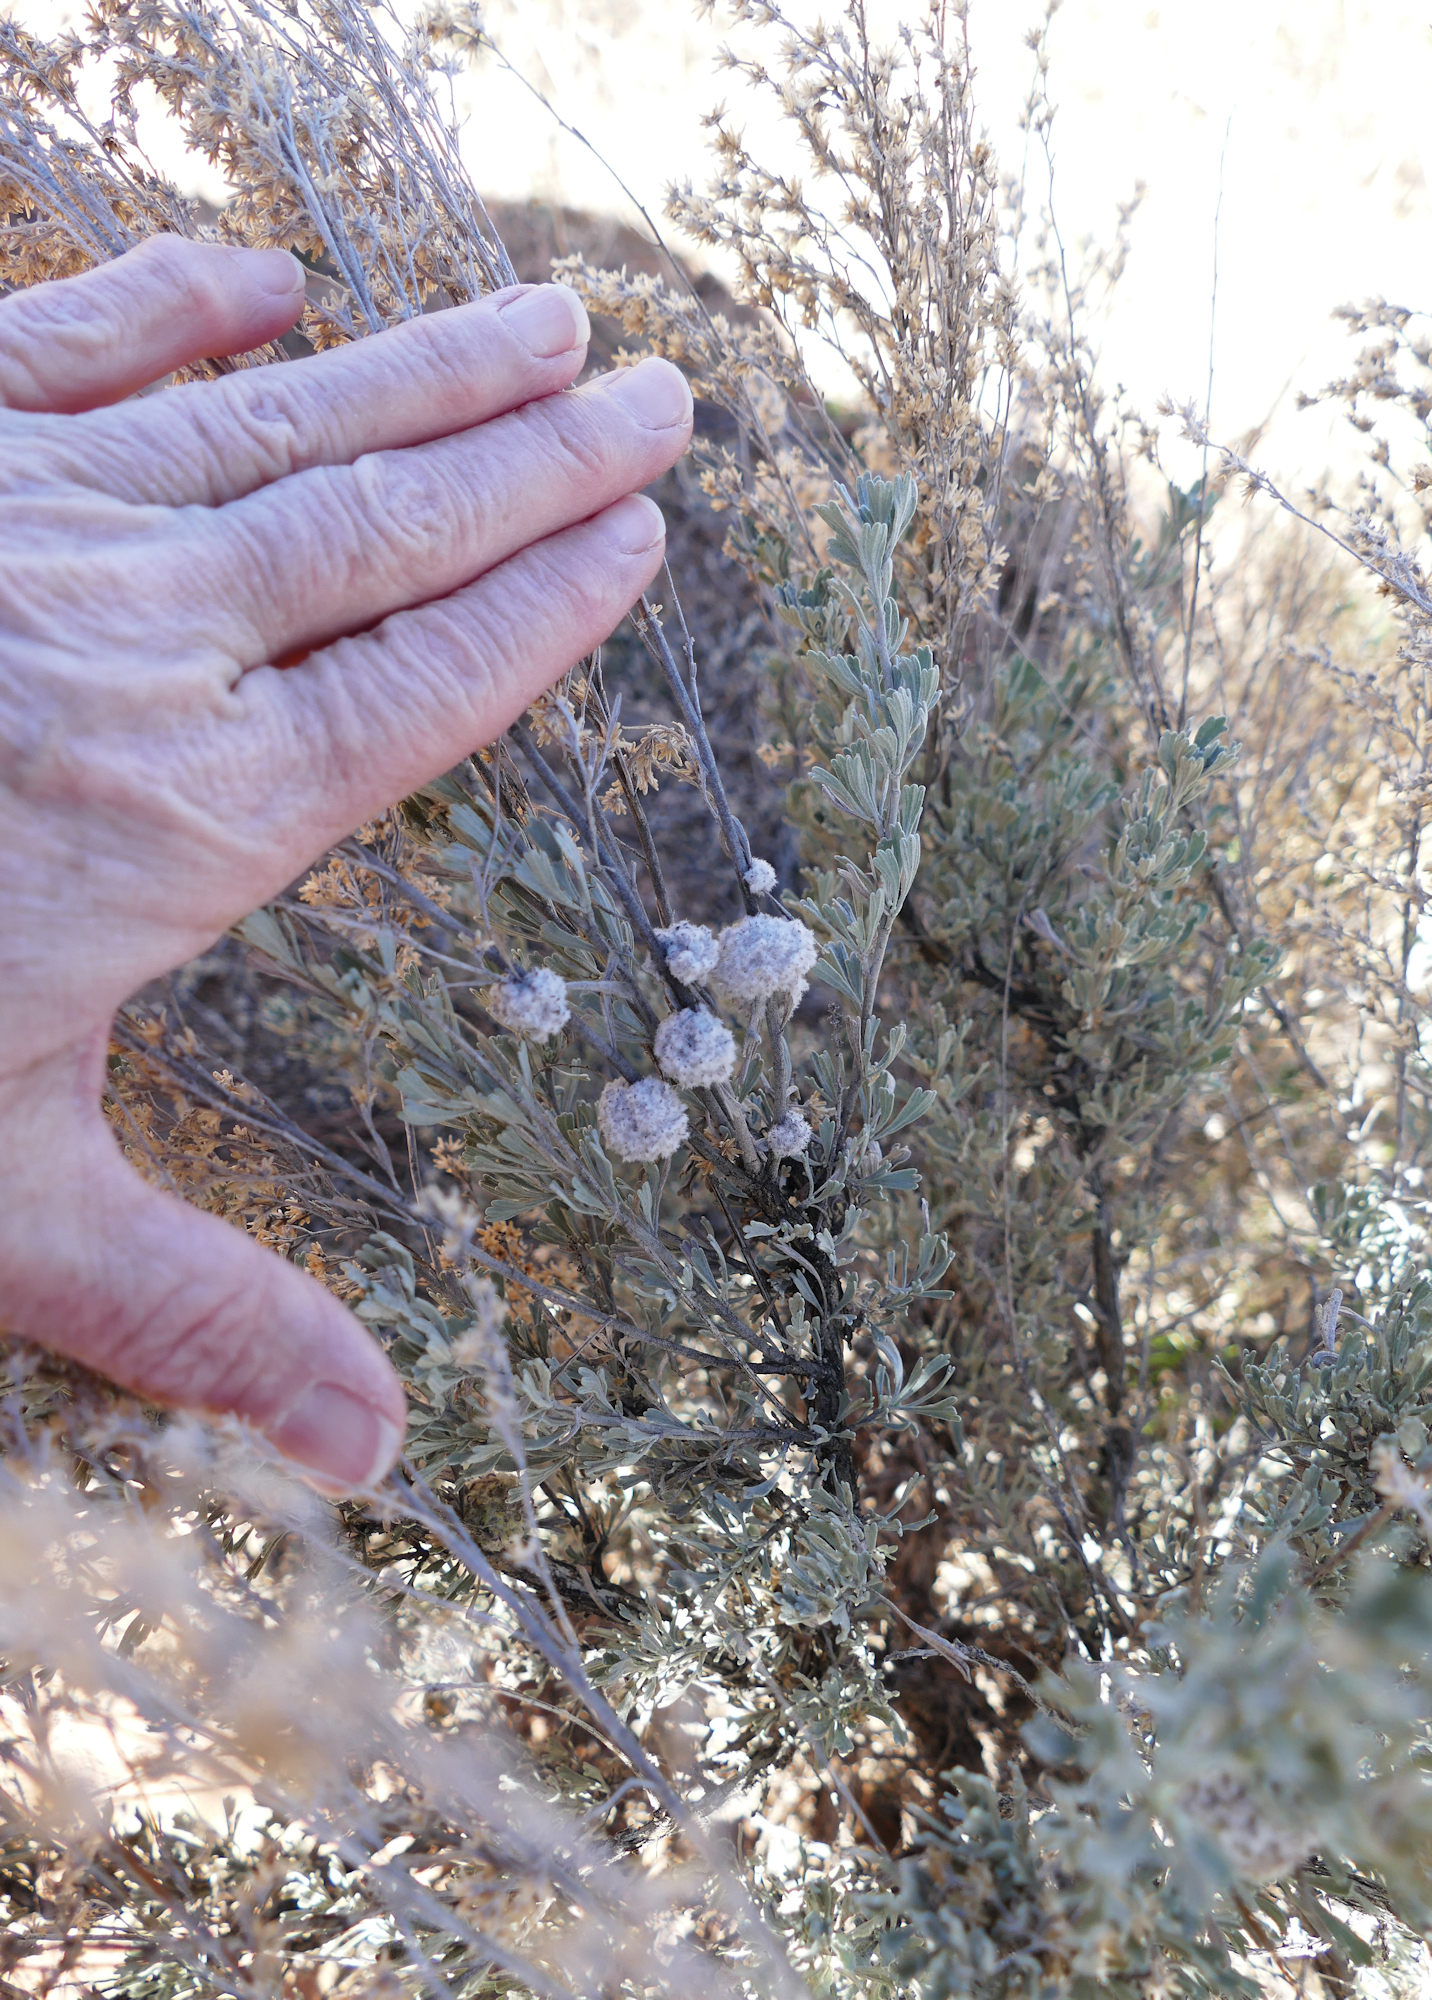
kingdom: Animalia
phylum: Arthropoda
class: Insecta
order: Diptera
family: Cecidomyiidae
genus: Rhopalomyia
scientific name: Rhopalomyia medusirrasa
